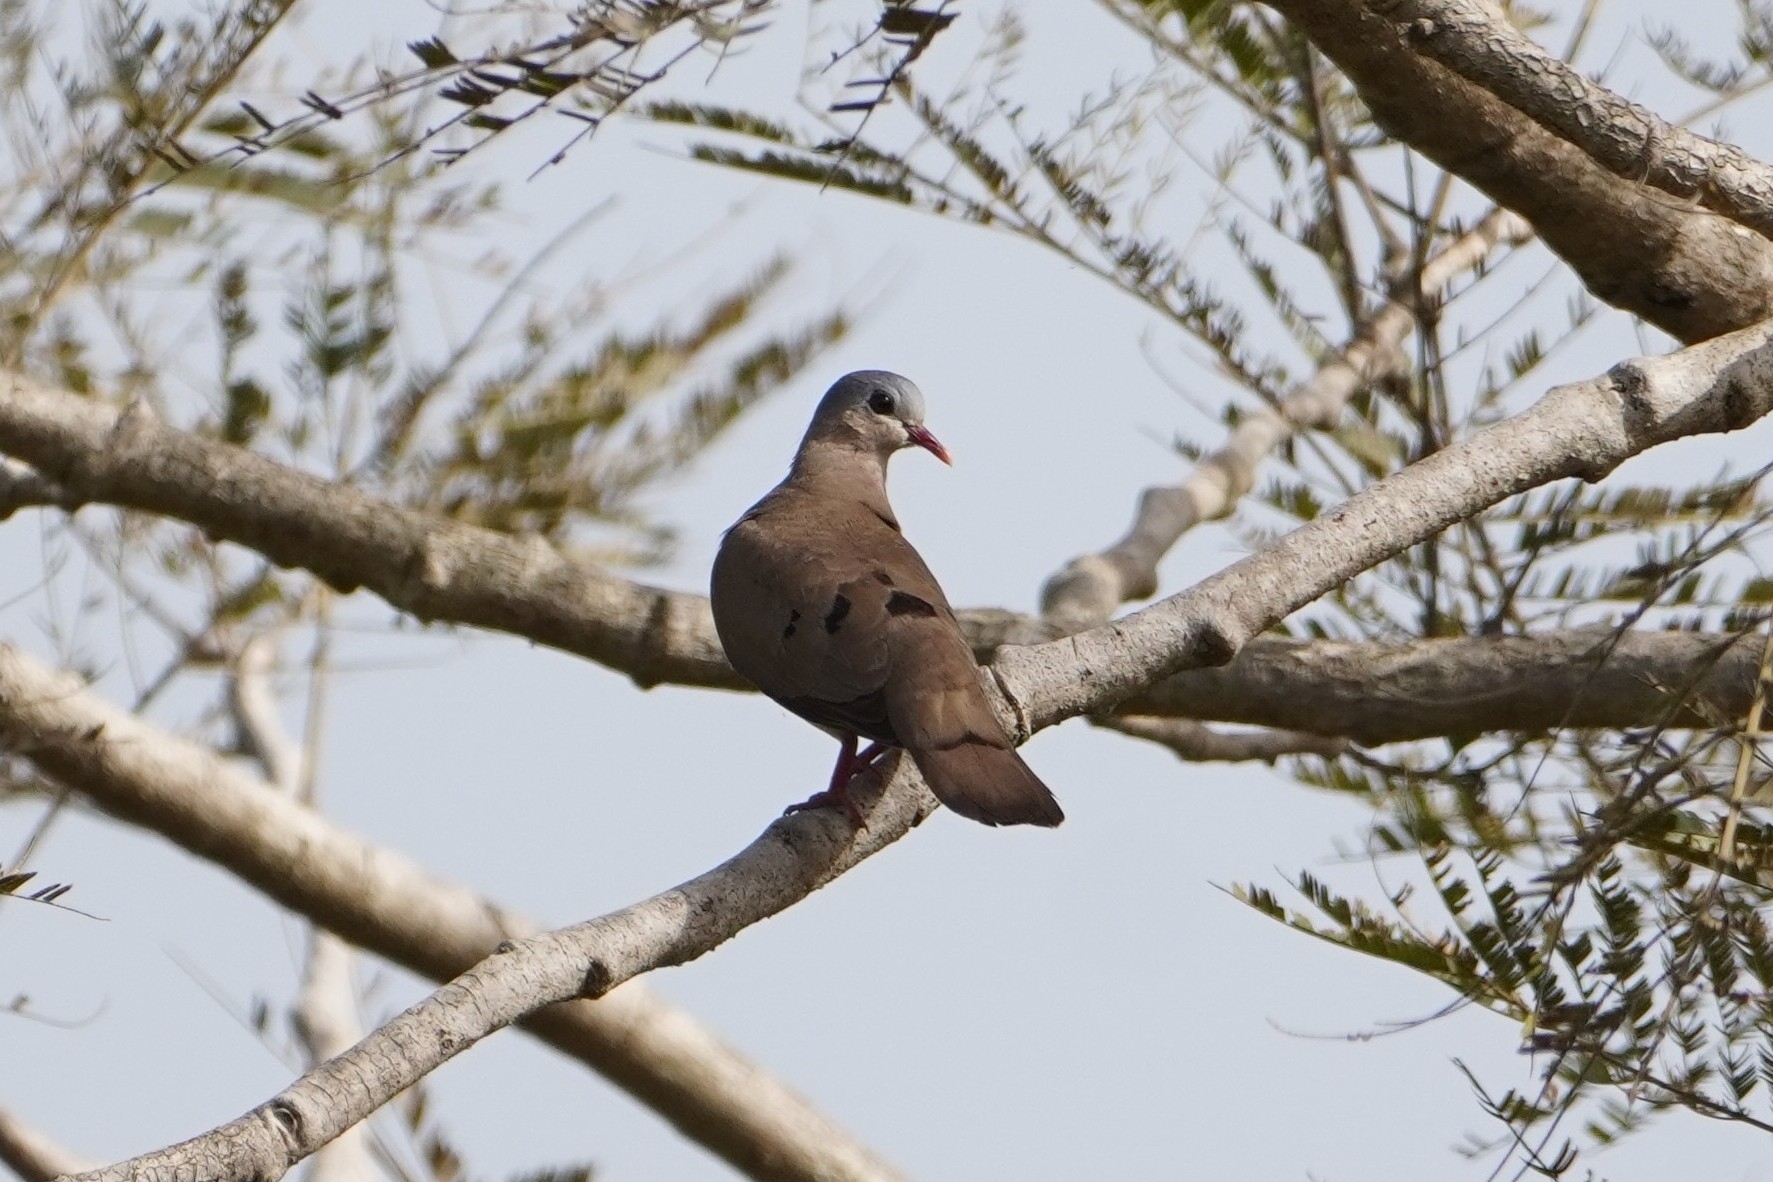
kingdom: Animalia
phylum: Chordata
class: Aves
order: Columbiformes
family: Columbidae
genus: Turtur
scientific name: Turtur afer
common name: Blue-spotted wood dove
